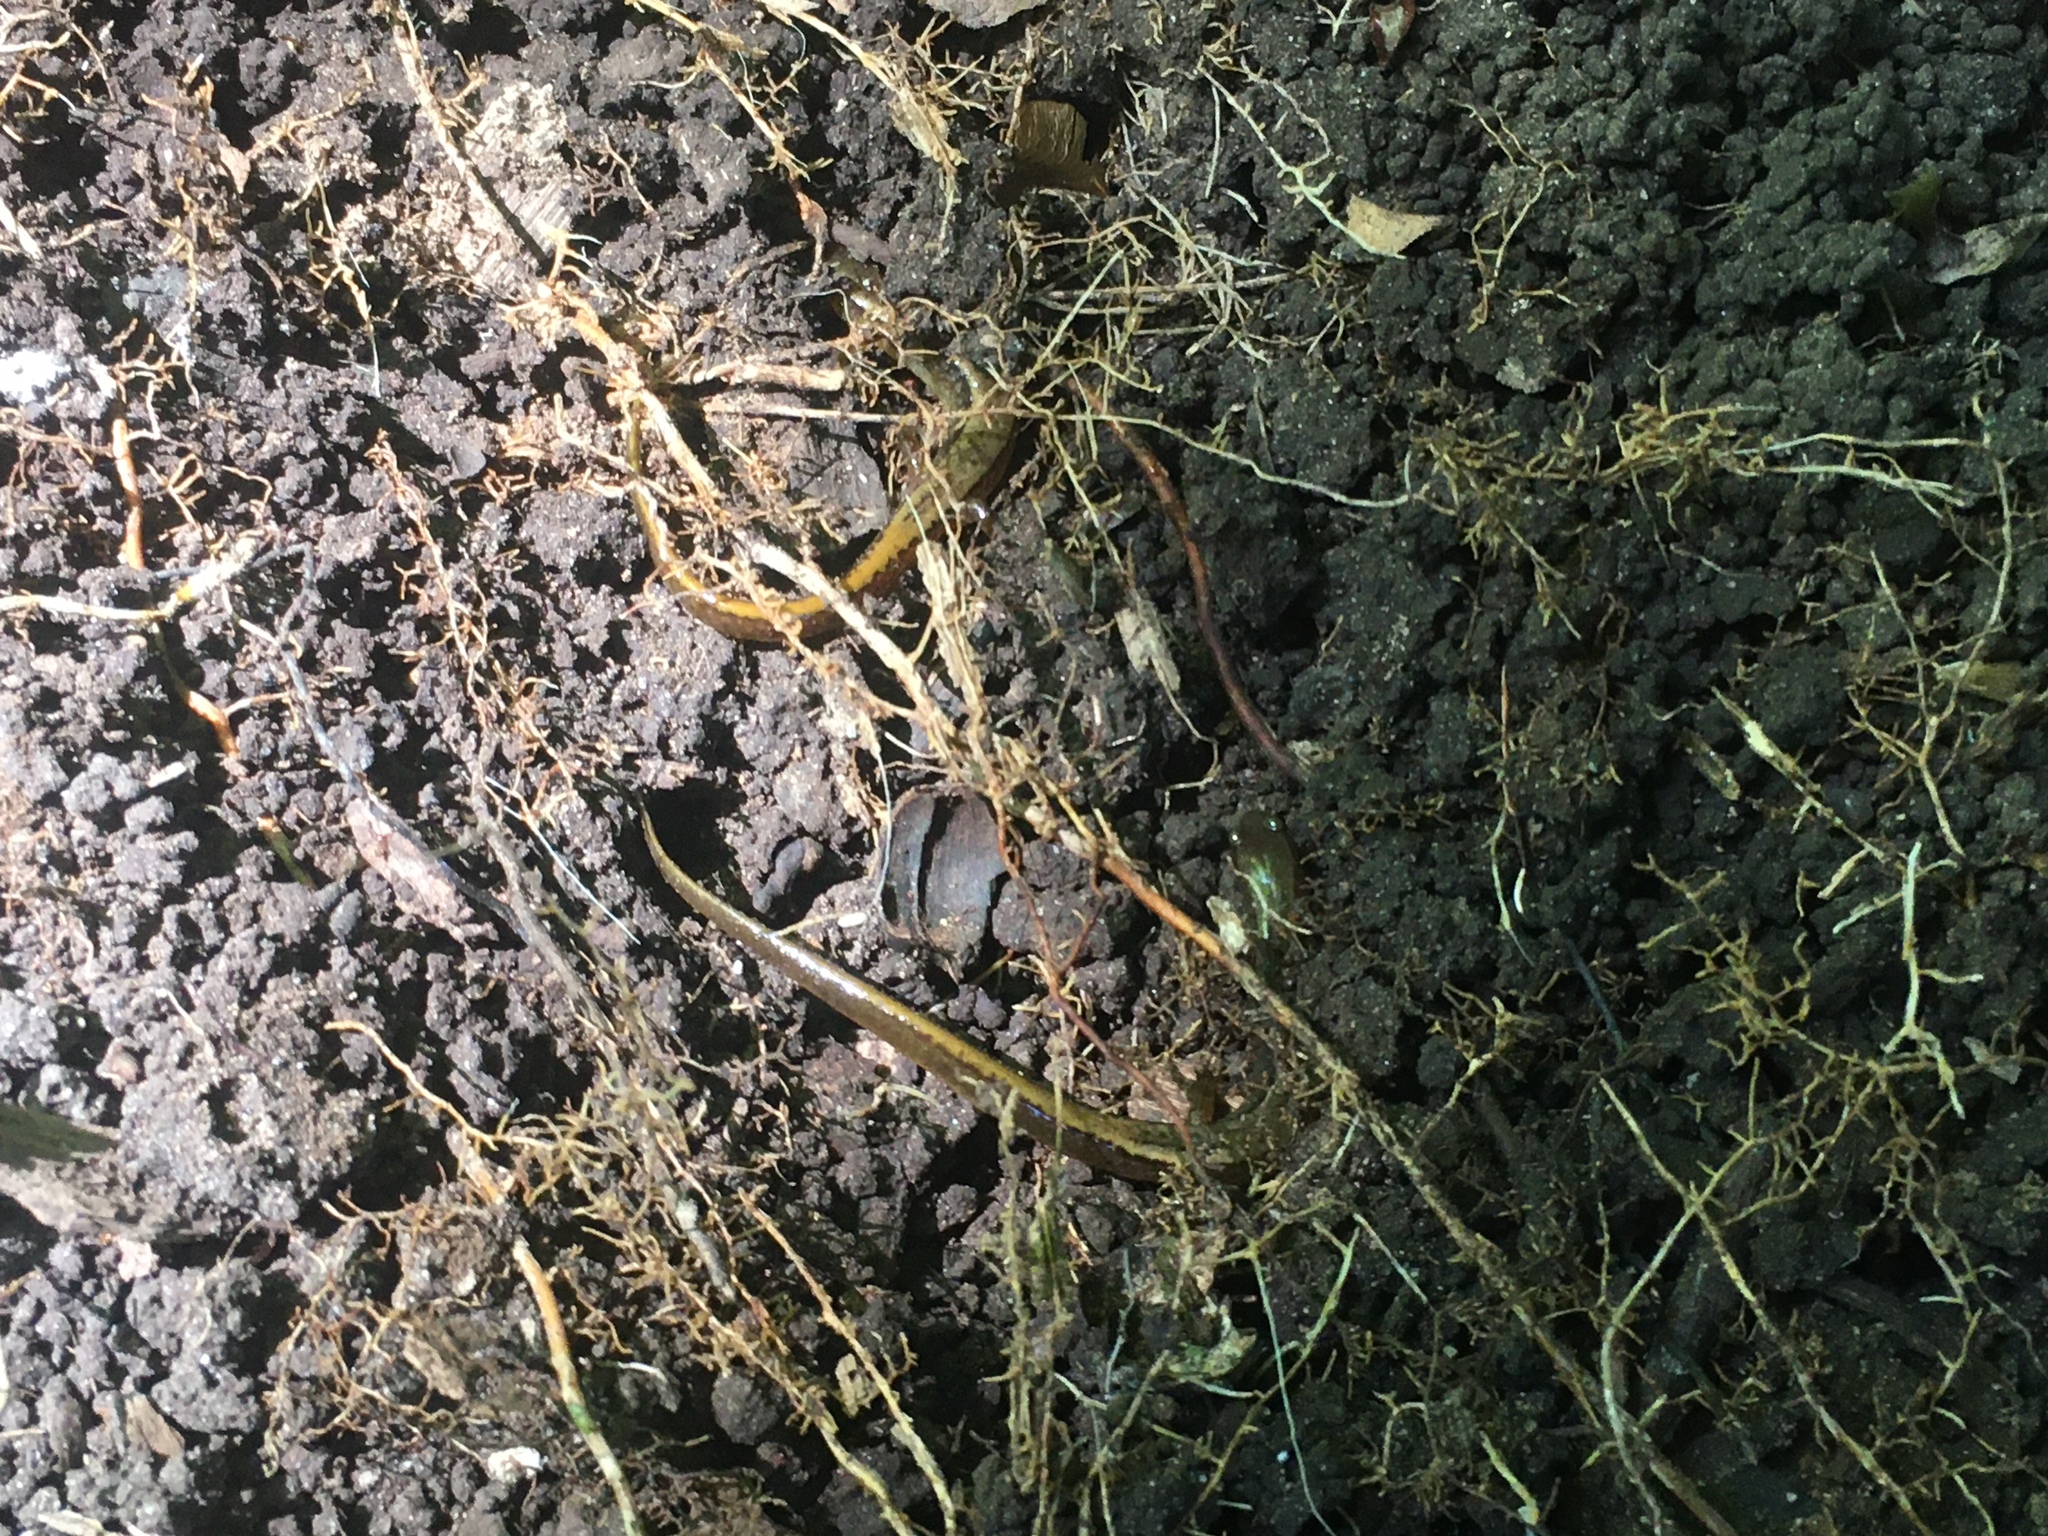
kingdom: Animalia
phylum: Chordata
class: Amphibia
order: Caudata
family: Plethodontidae
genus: Eurycea
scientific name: Eurycea bislineata
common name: Northern two-lined salamander
